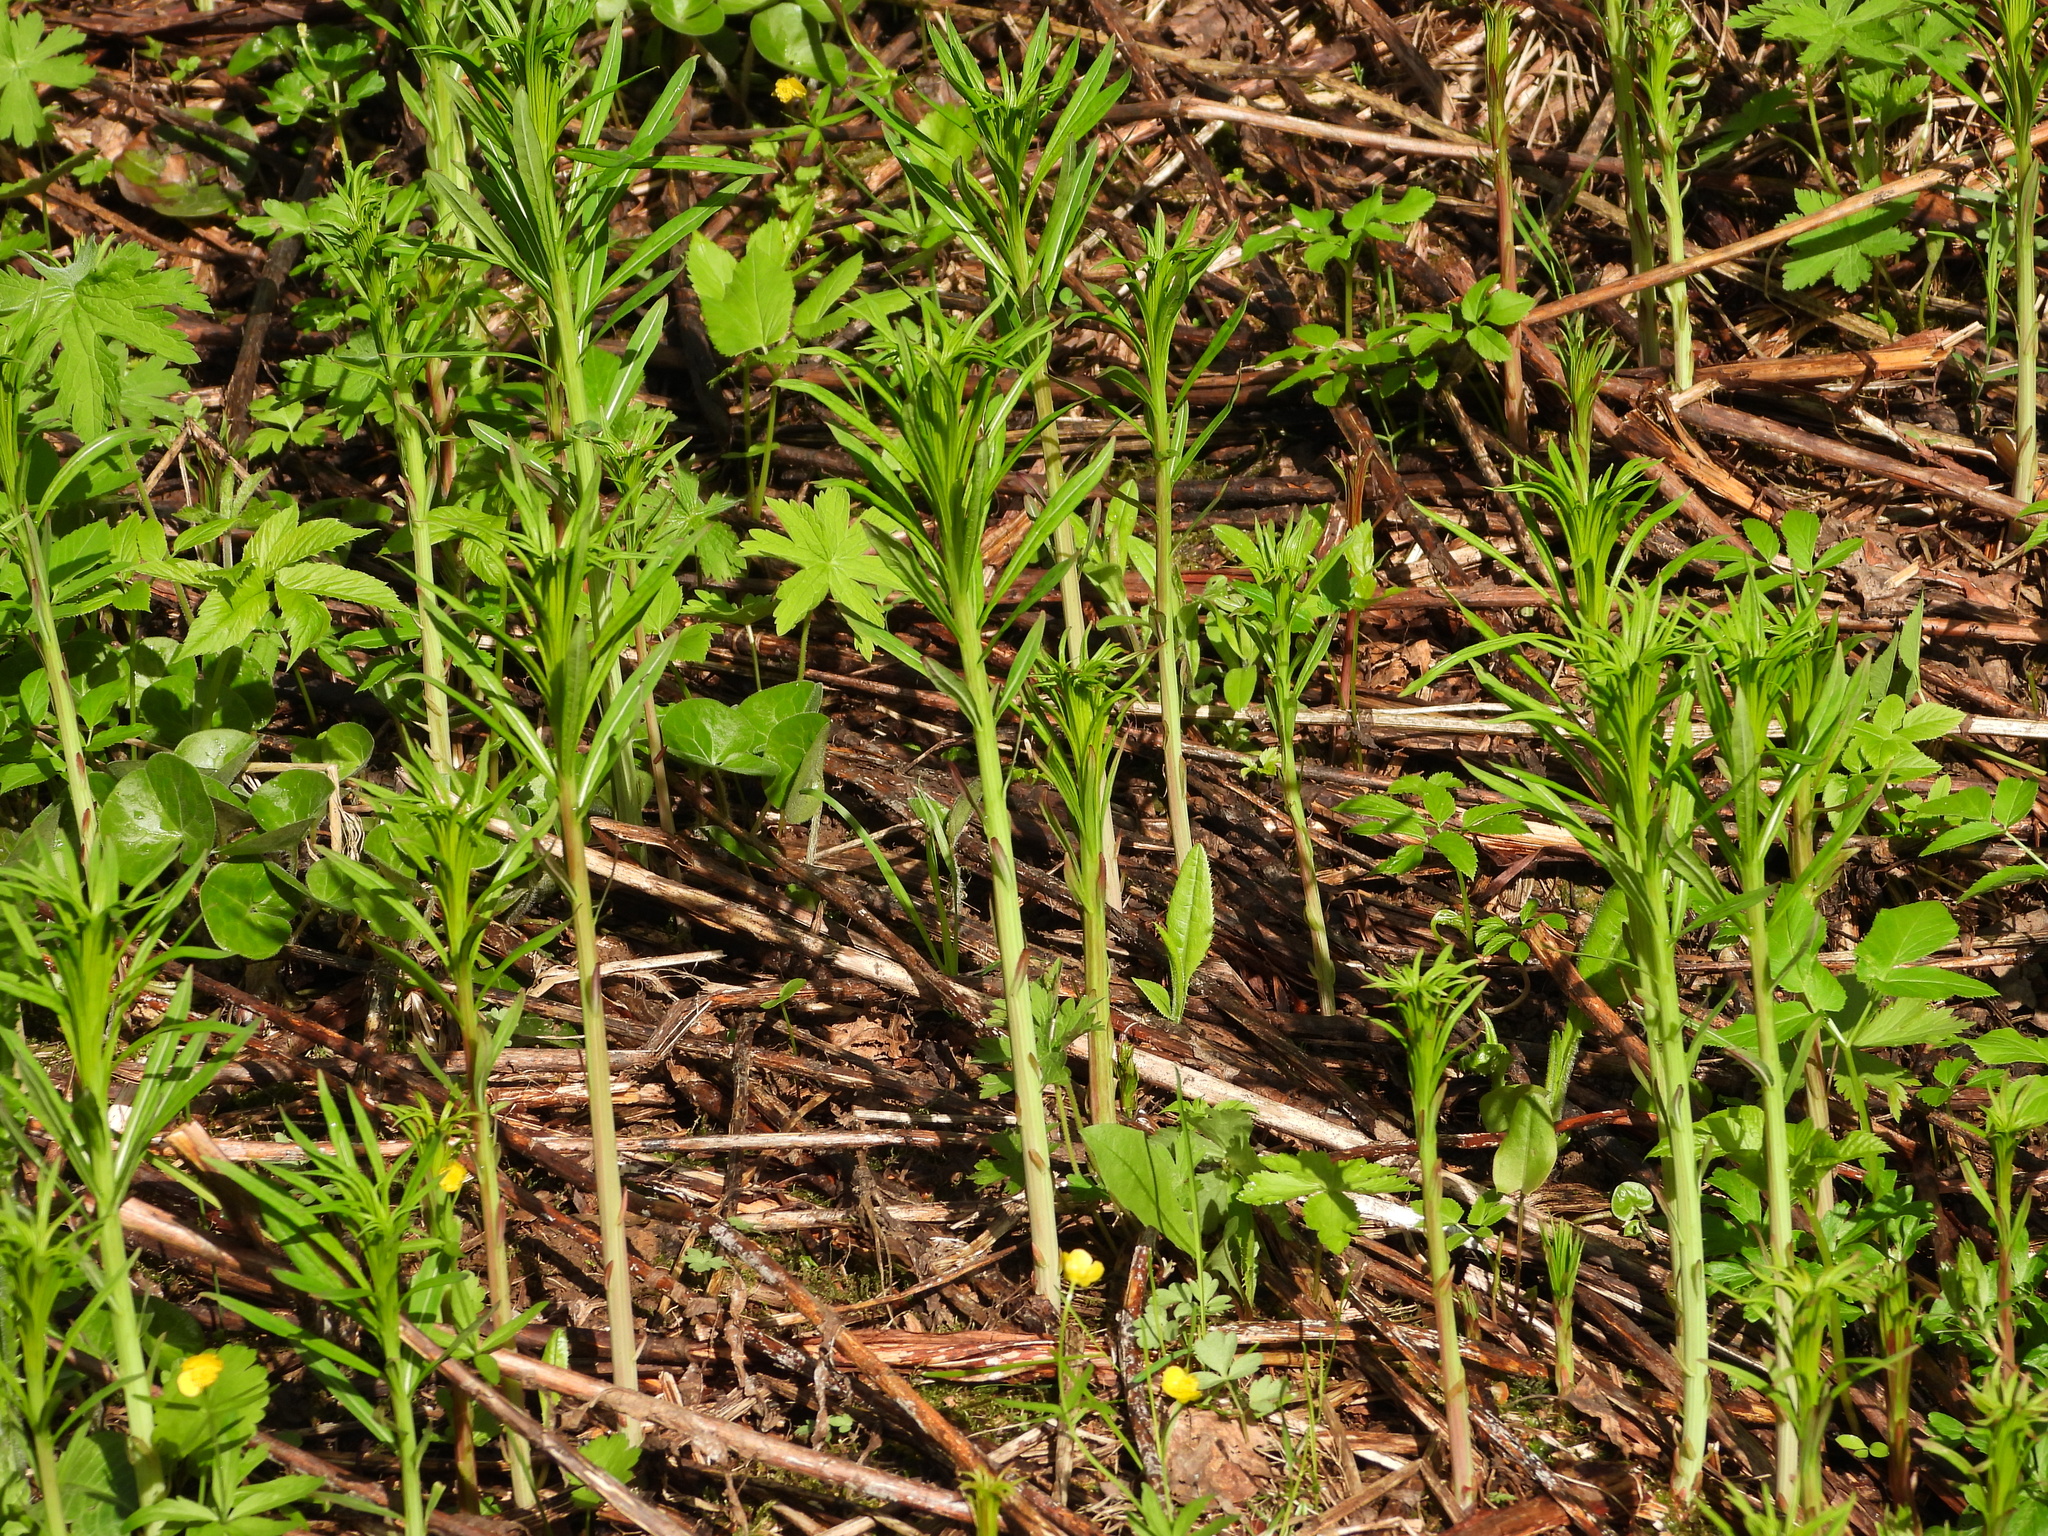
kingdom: Plantae
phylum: Tracheophyta
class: Magnoliopsida
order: Myrtales
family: Onagraceae
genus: Chamaenerion
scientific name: Chamaenerion angustifolium
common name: Fireweed
